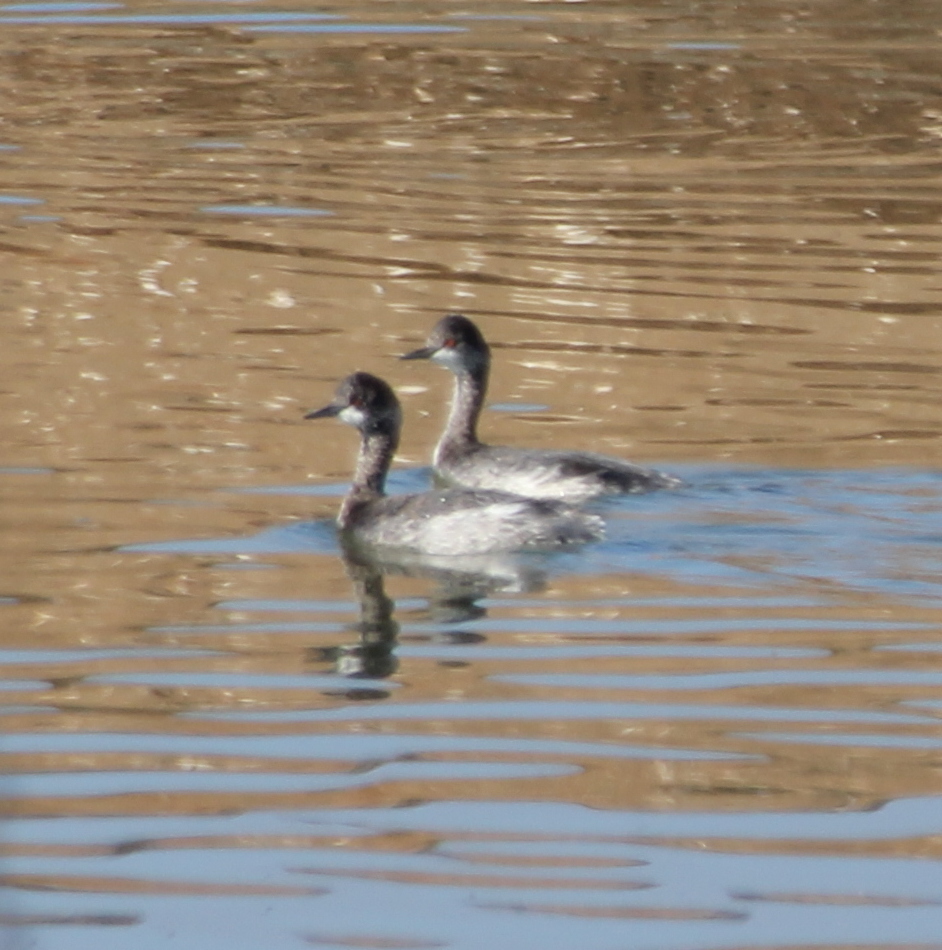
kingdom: Animalia
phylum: Chordata
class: Aves
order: Podicipediformes
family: Podicipedidae
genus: Podiceps
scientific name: Podiceps nigricollis
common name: Black-necked grebe
